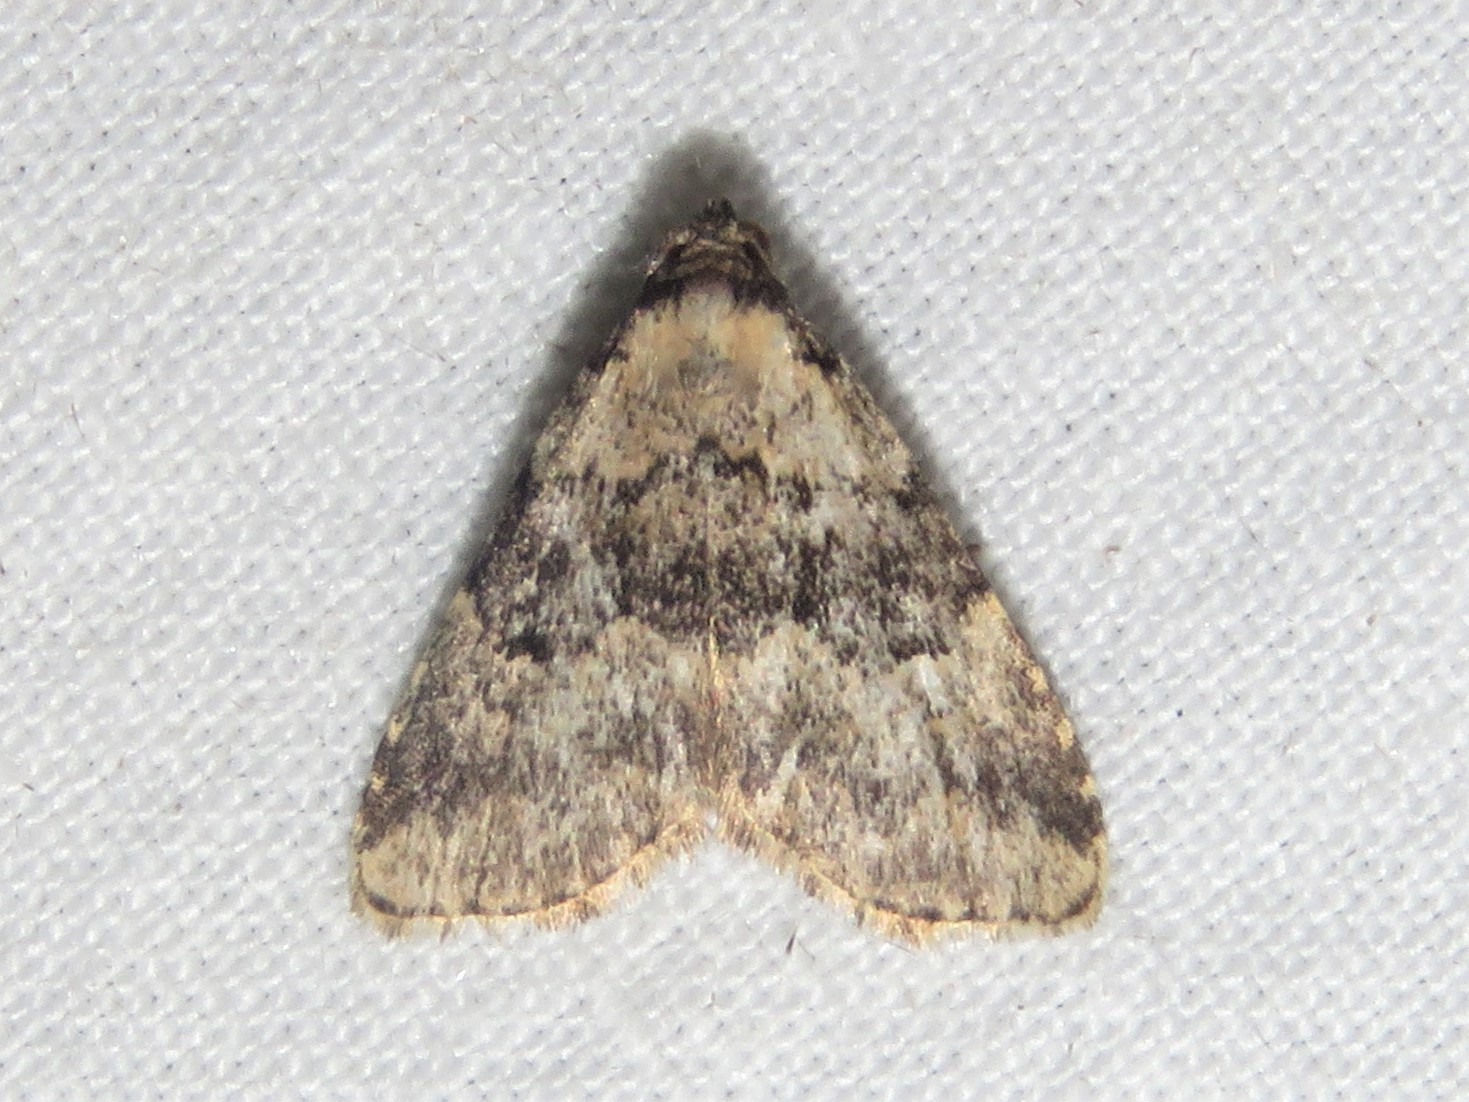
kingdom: Animalia
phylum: Arthropoda
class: Insecta
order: Lepidoptera
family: Erebidae
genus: Dyspyralis
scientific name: Dyspyralis illocata
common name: Visitation moth
